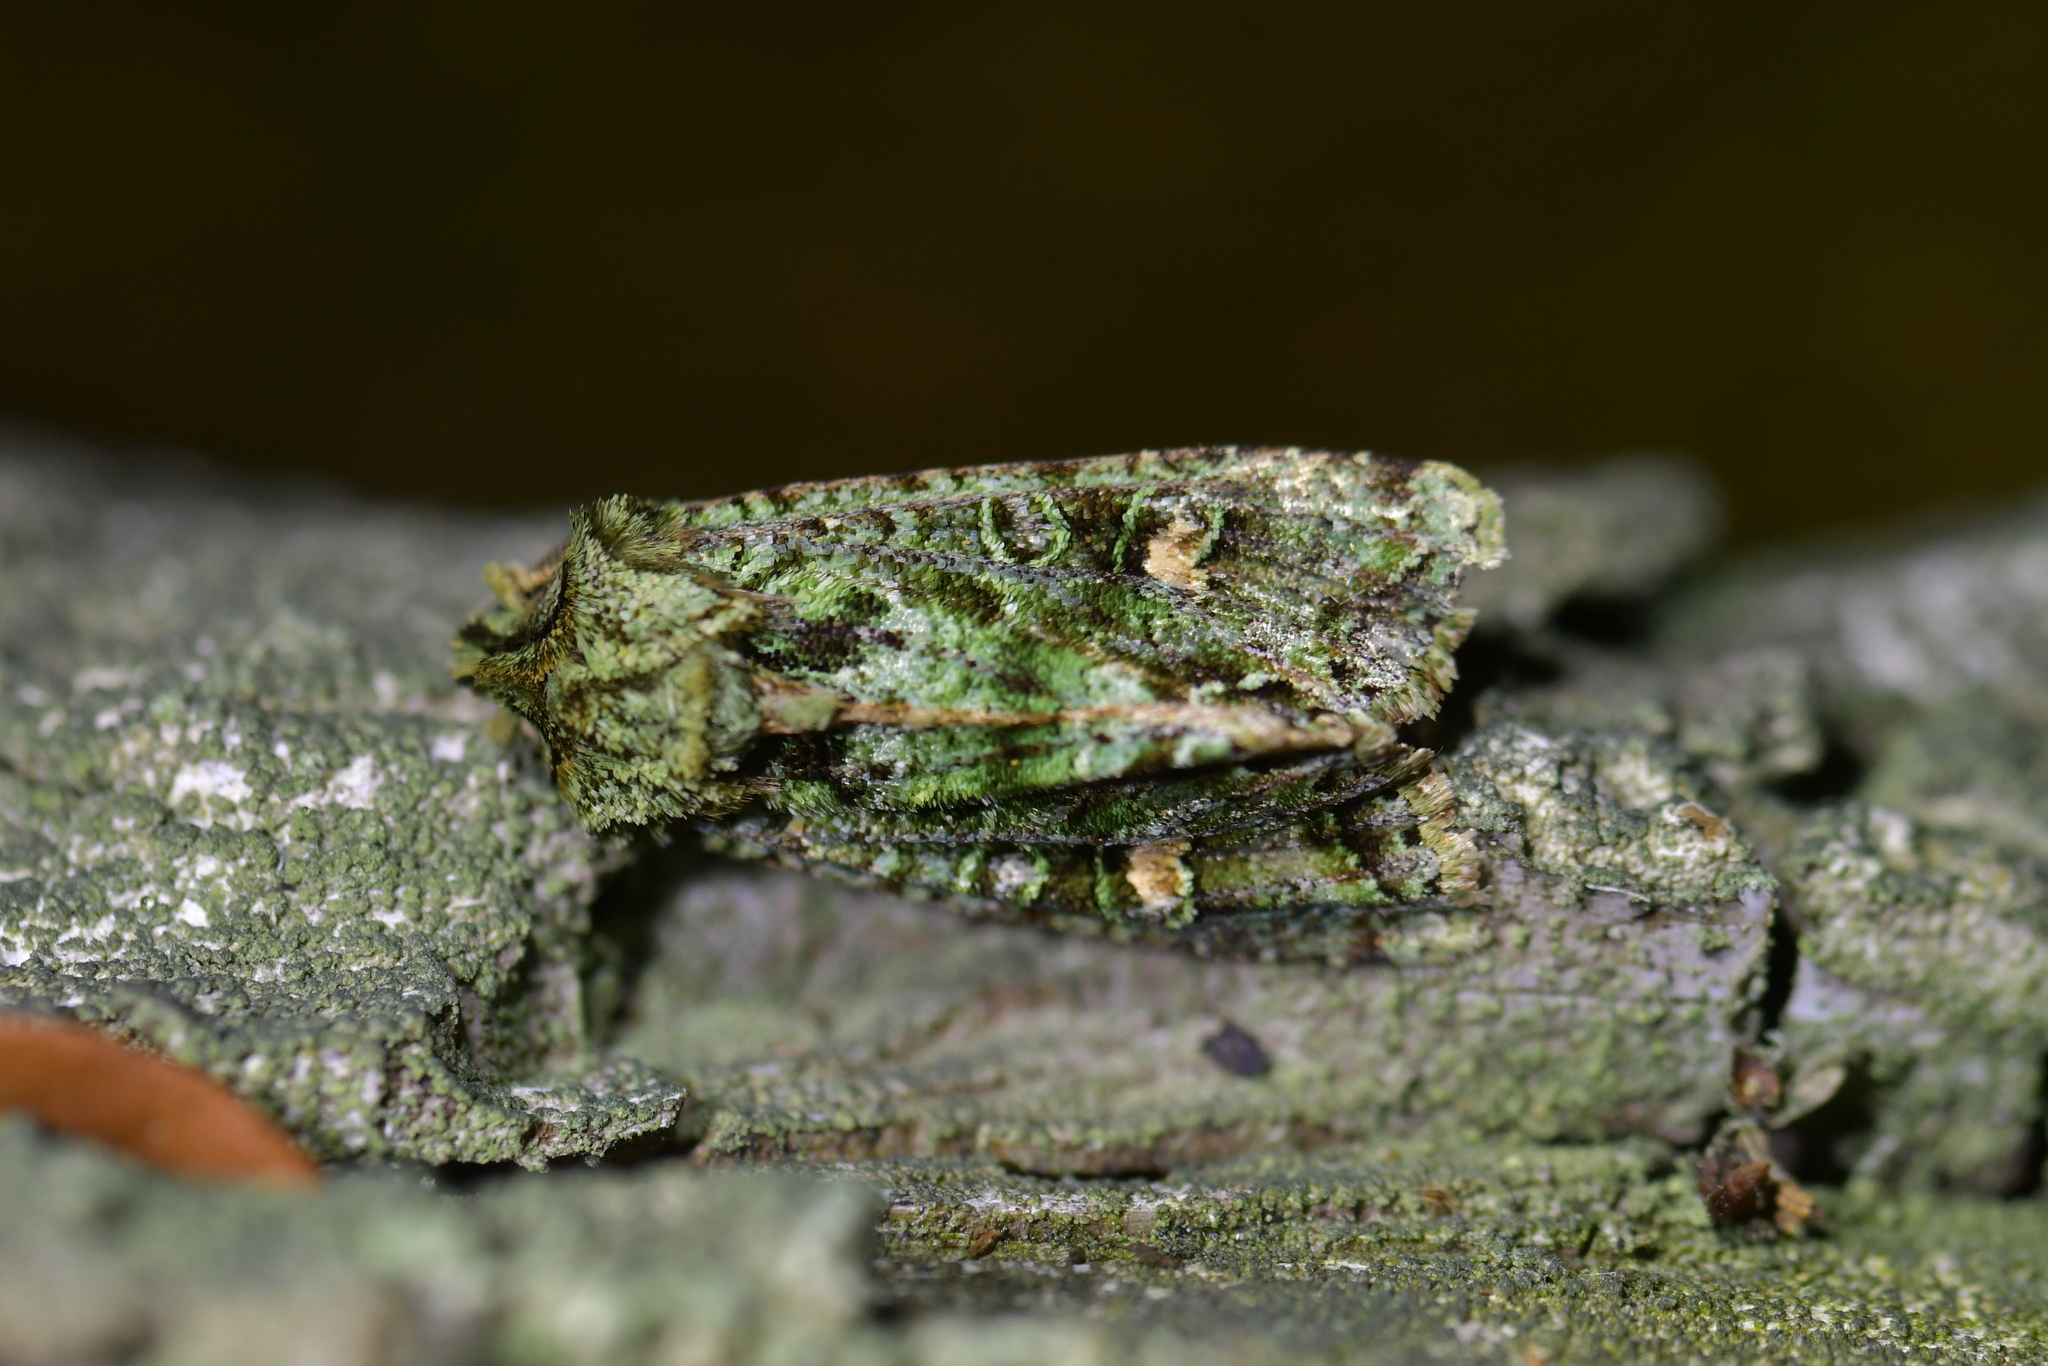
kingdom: Animalia
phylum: Arthropoda
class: Insecta
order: Lepidoptera
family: Noctuidae
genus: Ichneutica
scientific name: Ichneutica
